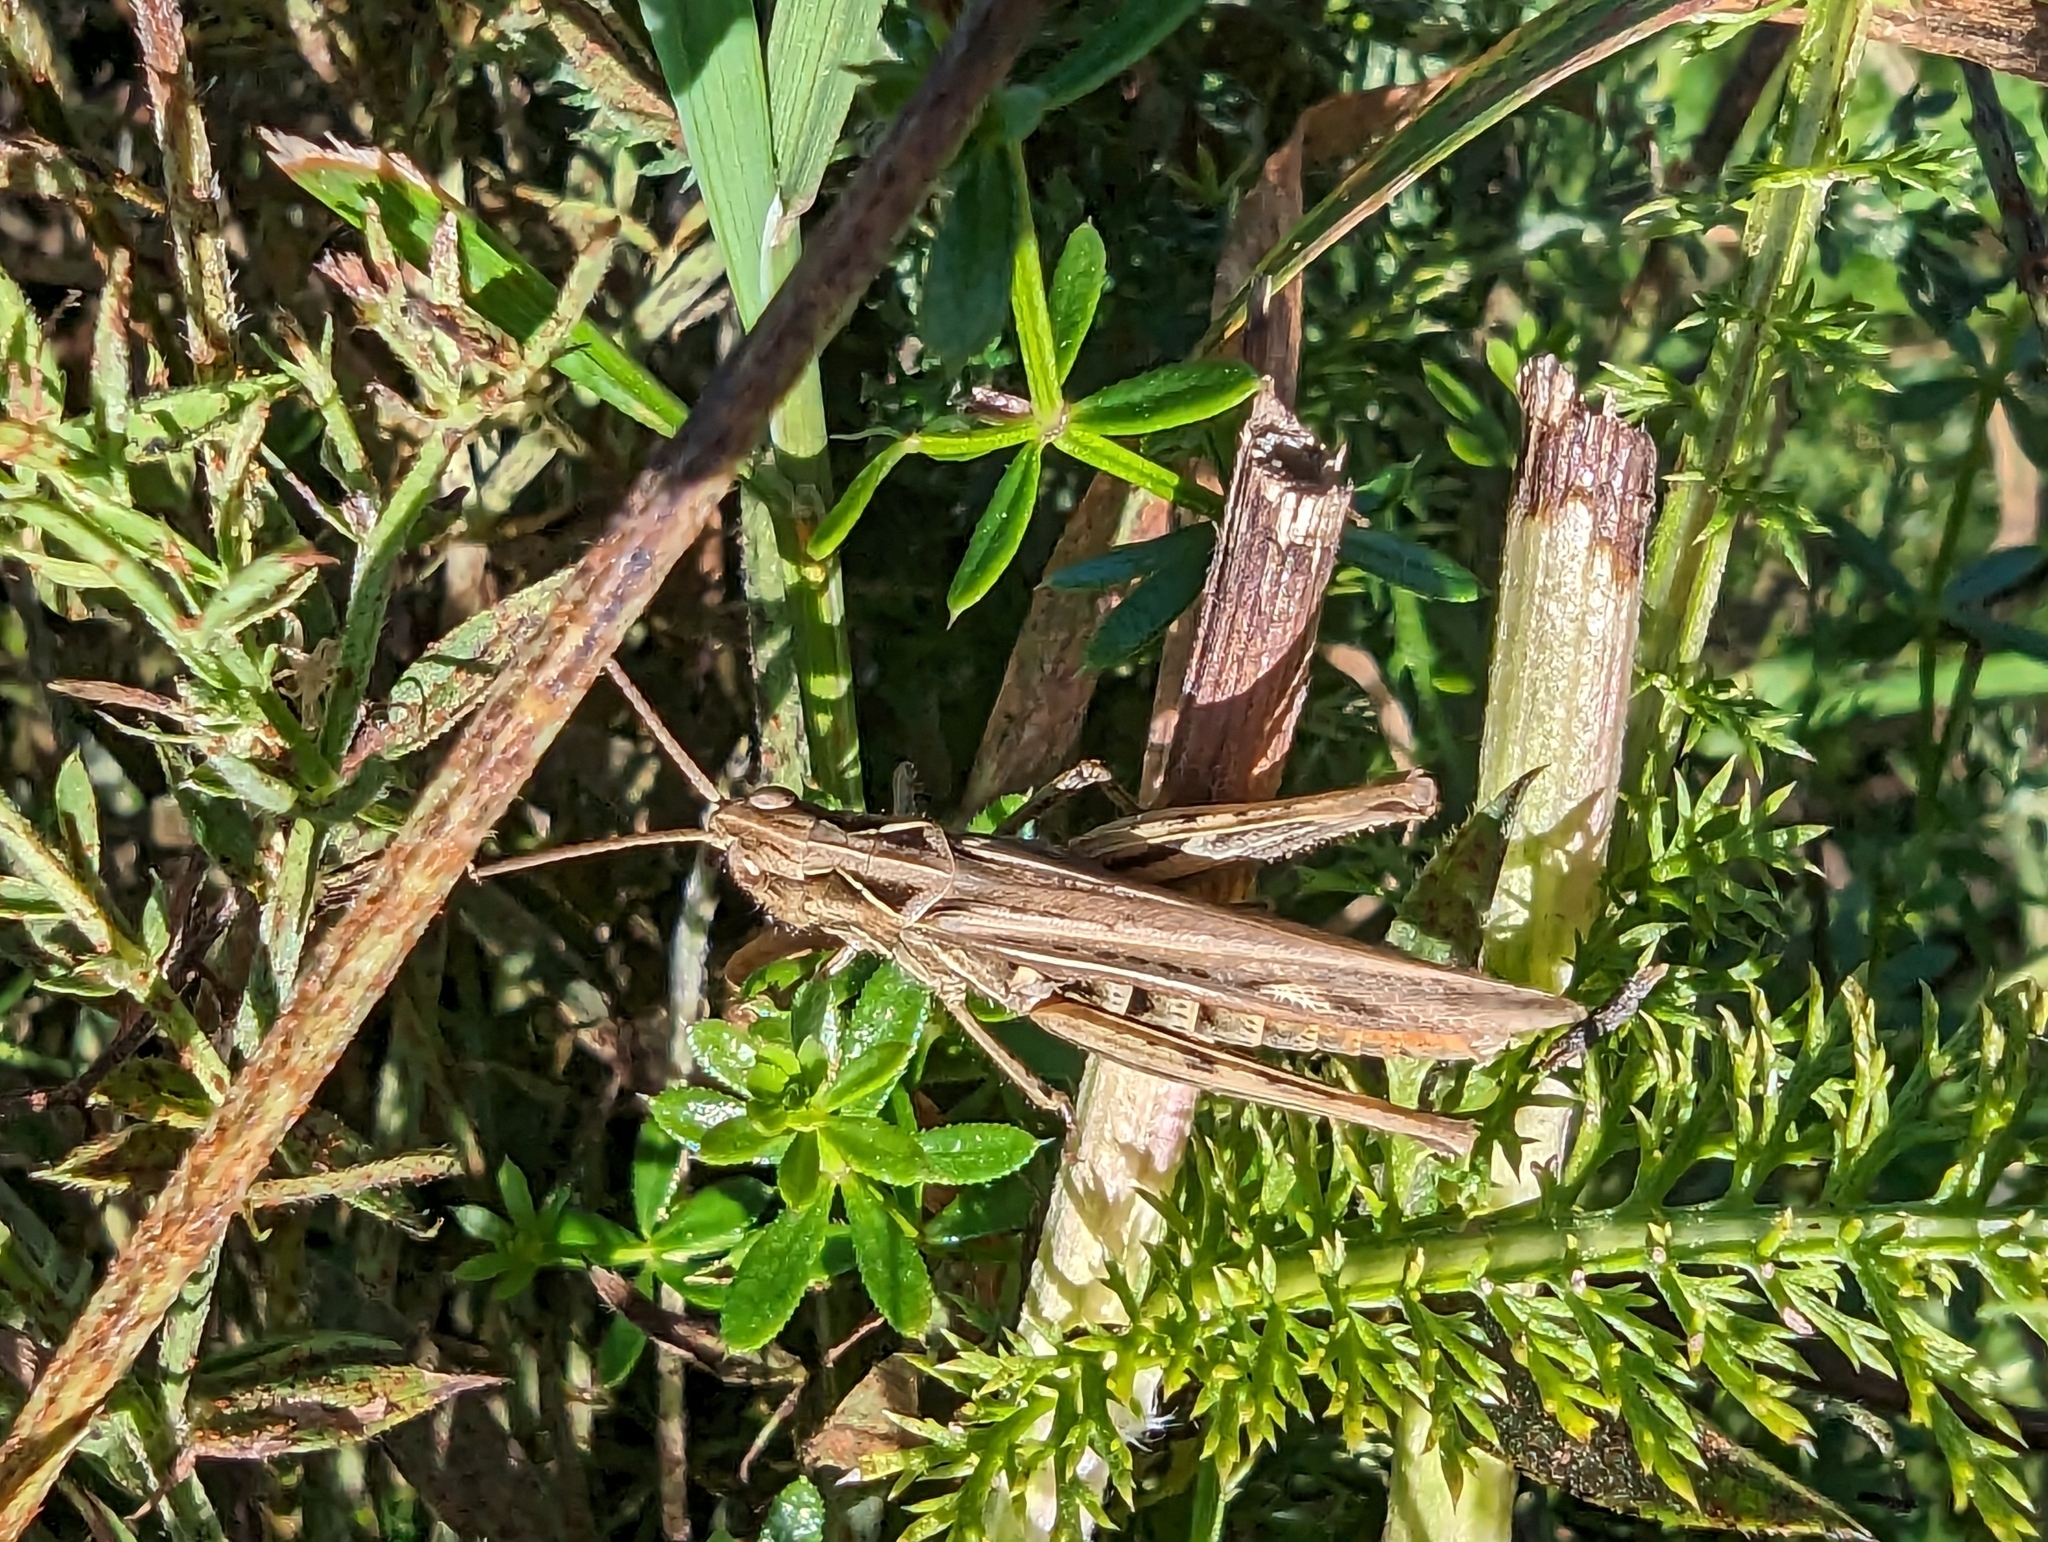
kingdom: Animalia
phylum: Arthropoda
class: Insecta
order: Orthoptera
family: Acrididae
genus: Chorthippus
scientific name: Chorthippus brunneus
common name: Field grasshopper
